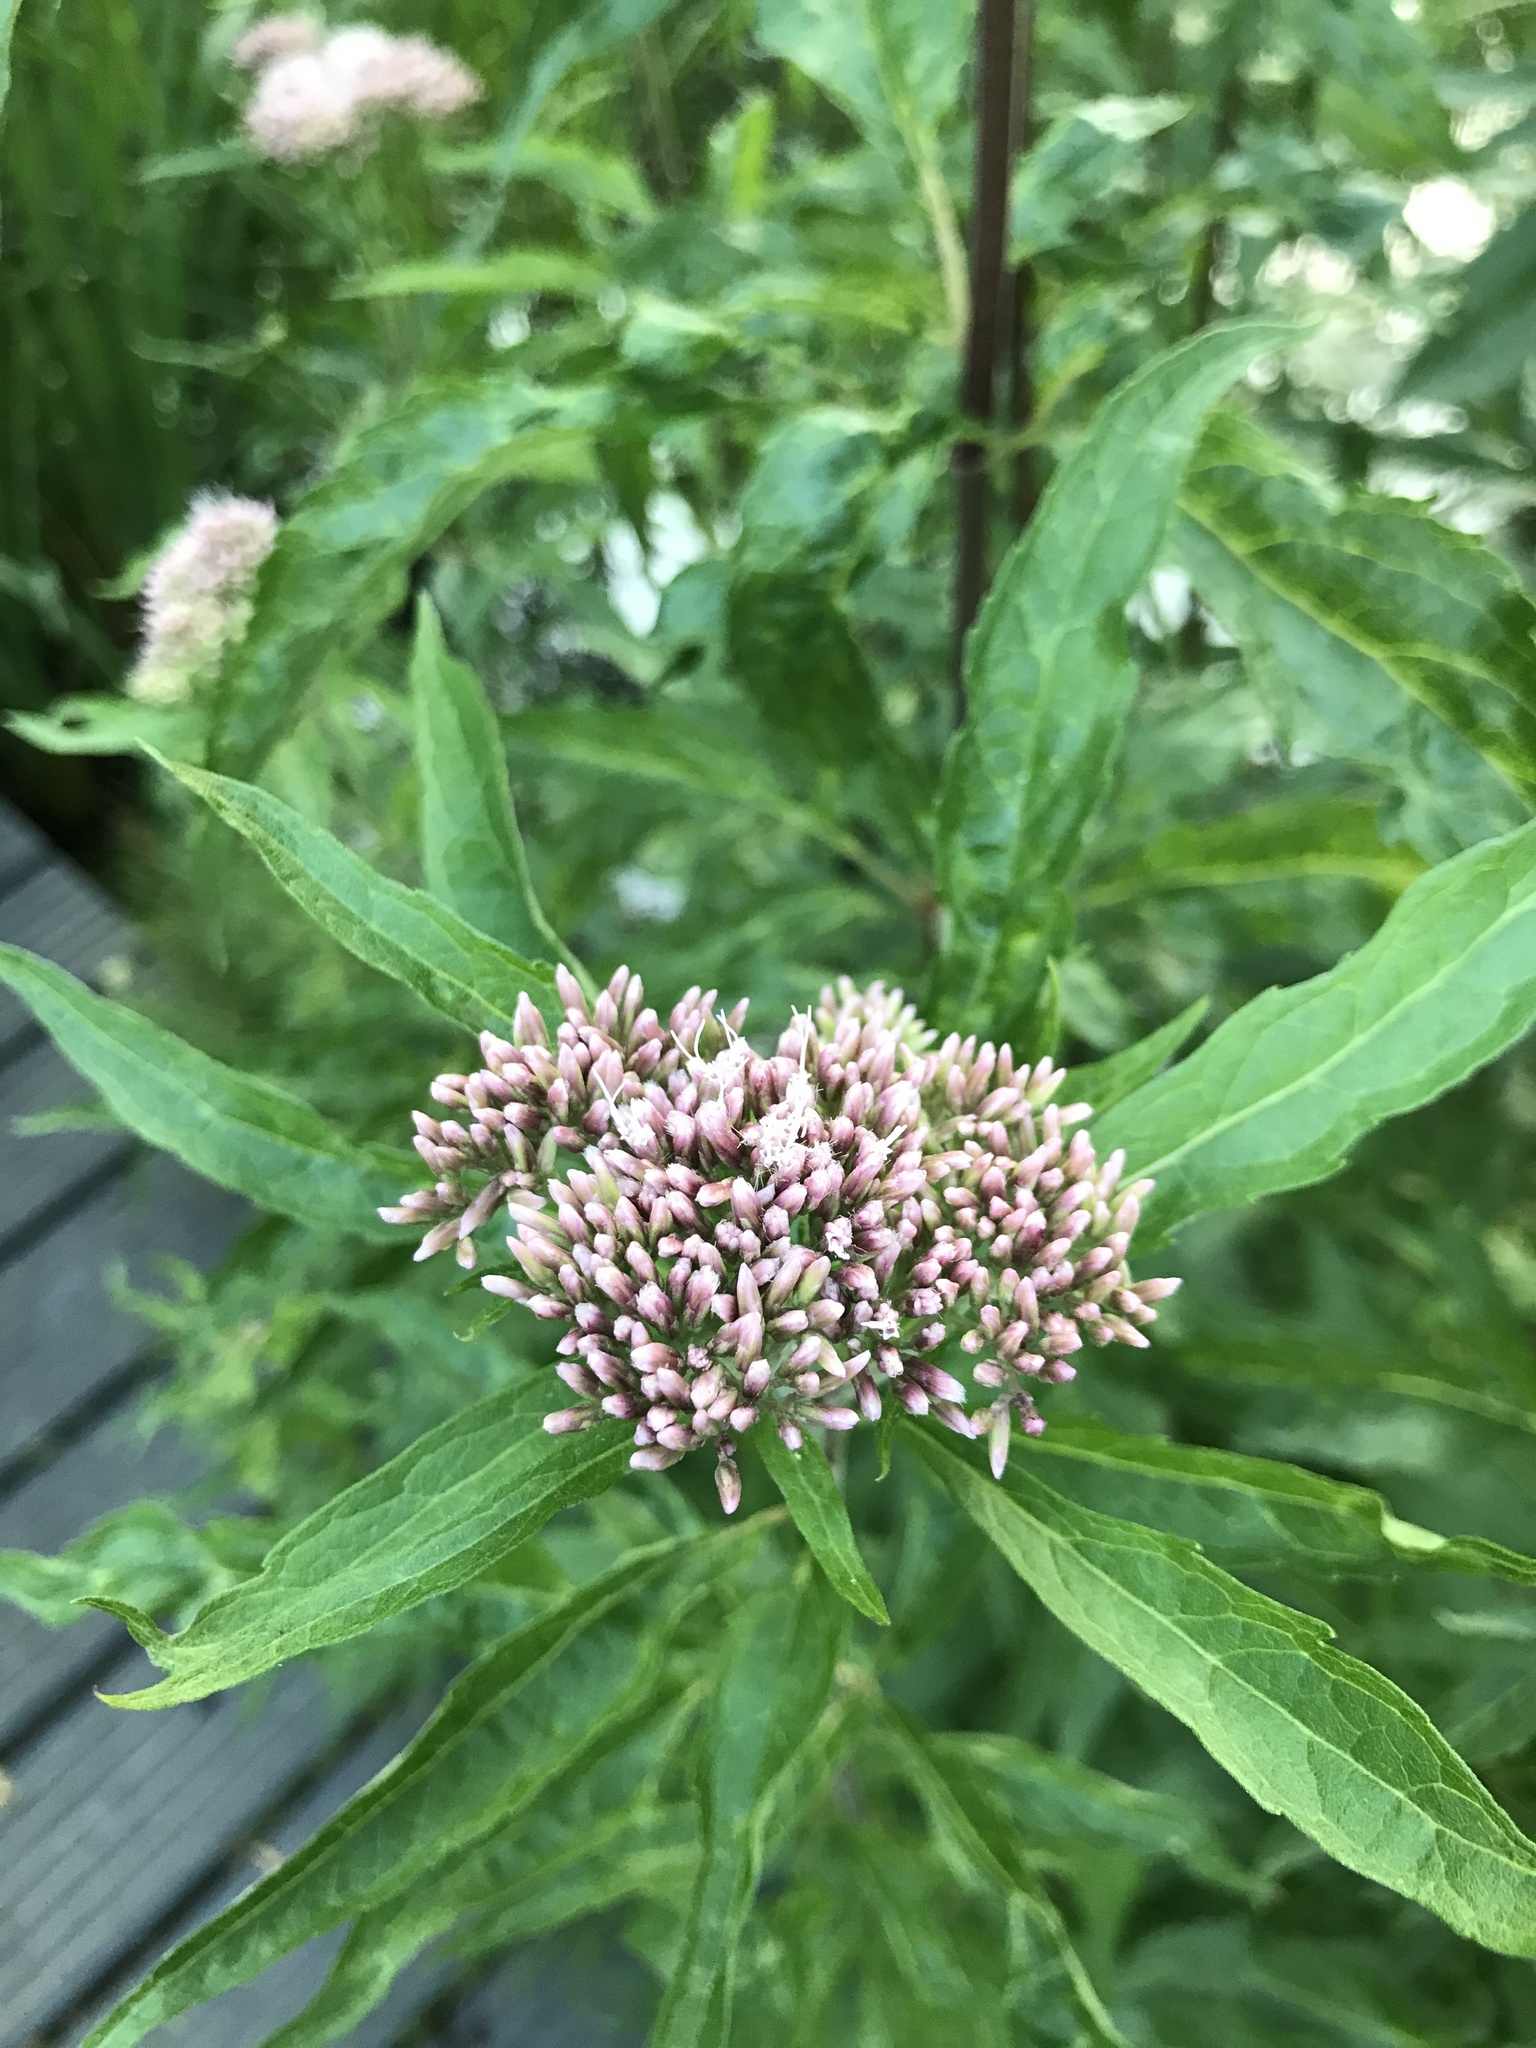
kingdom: Plantae
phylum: Tracheophyta
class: Magnoliopsida
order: Asterales
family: Asteraceae
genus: Eupatorium
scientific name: Eupatorium cannabinum
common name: Hemp-agrimony
